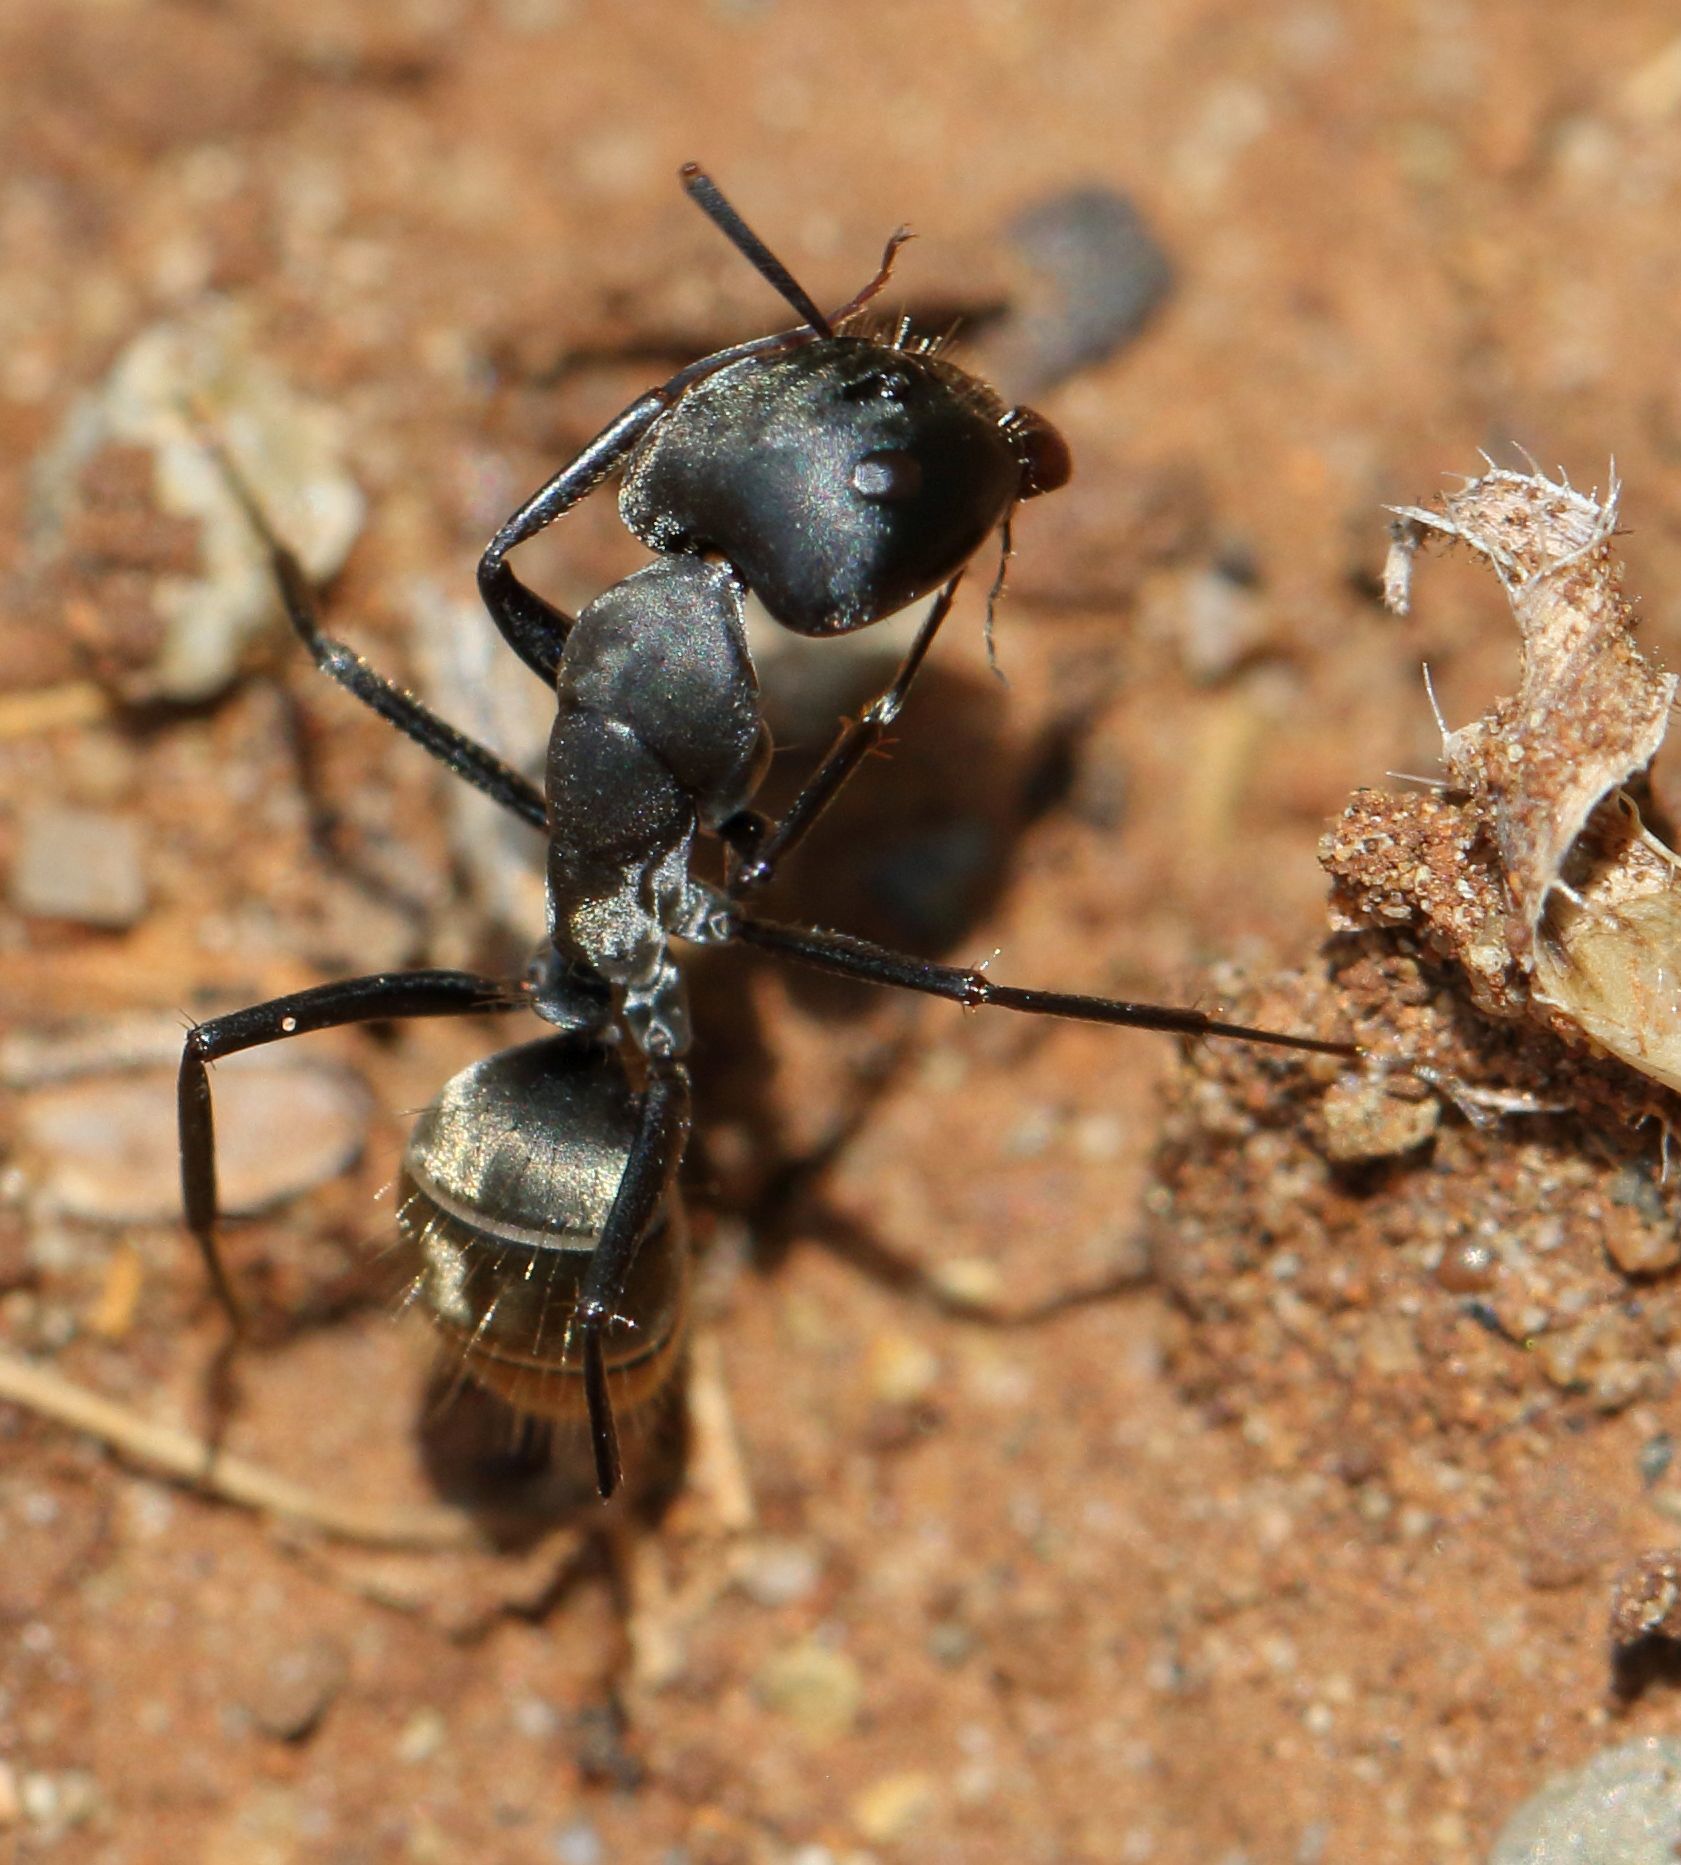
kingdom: Animalia
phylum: Arthropoda
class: Insecta
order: Hymenoptera
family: Formicidae
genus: Camponotus
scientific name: Camponotus cinctellus
